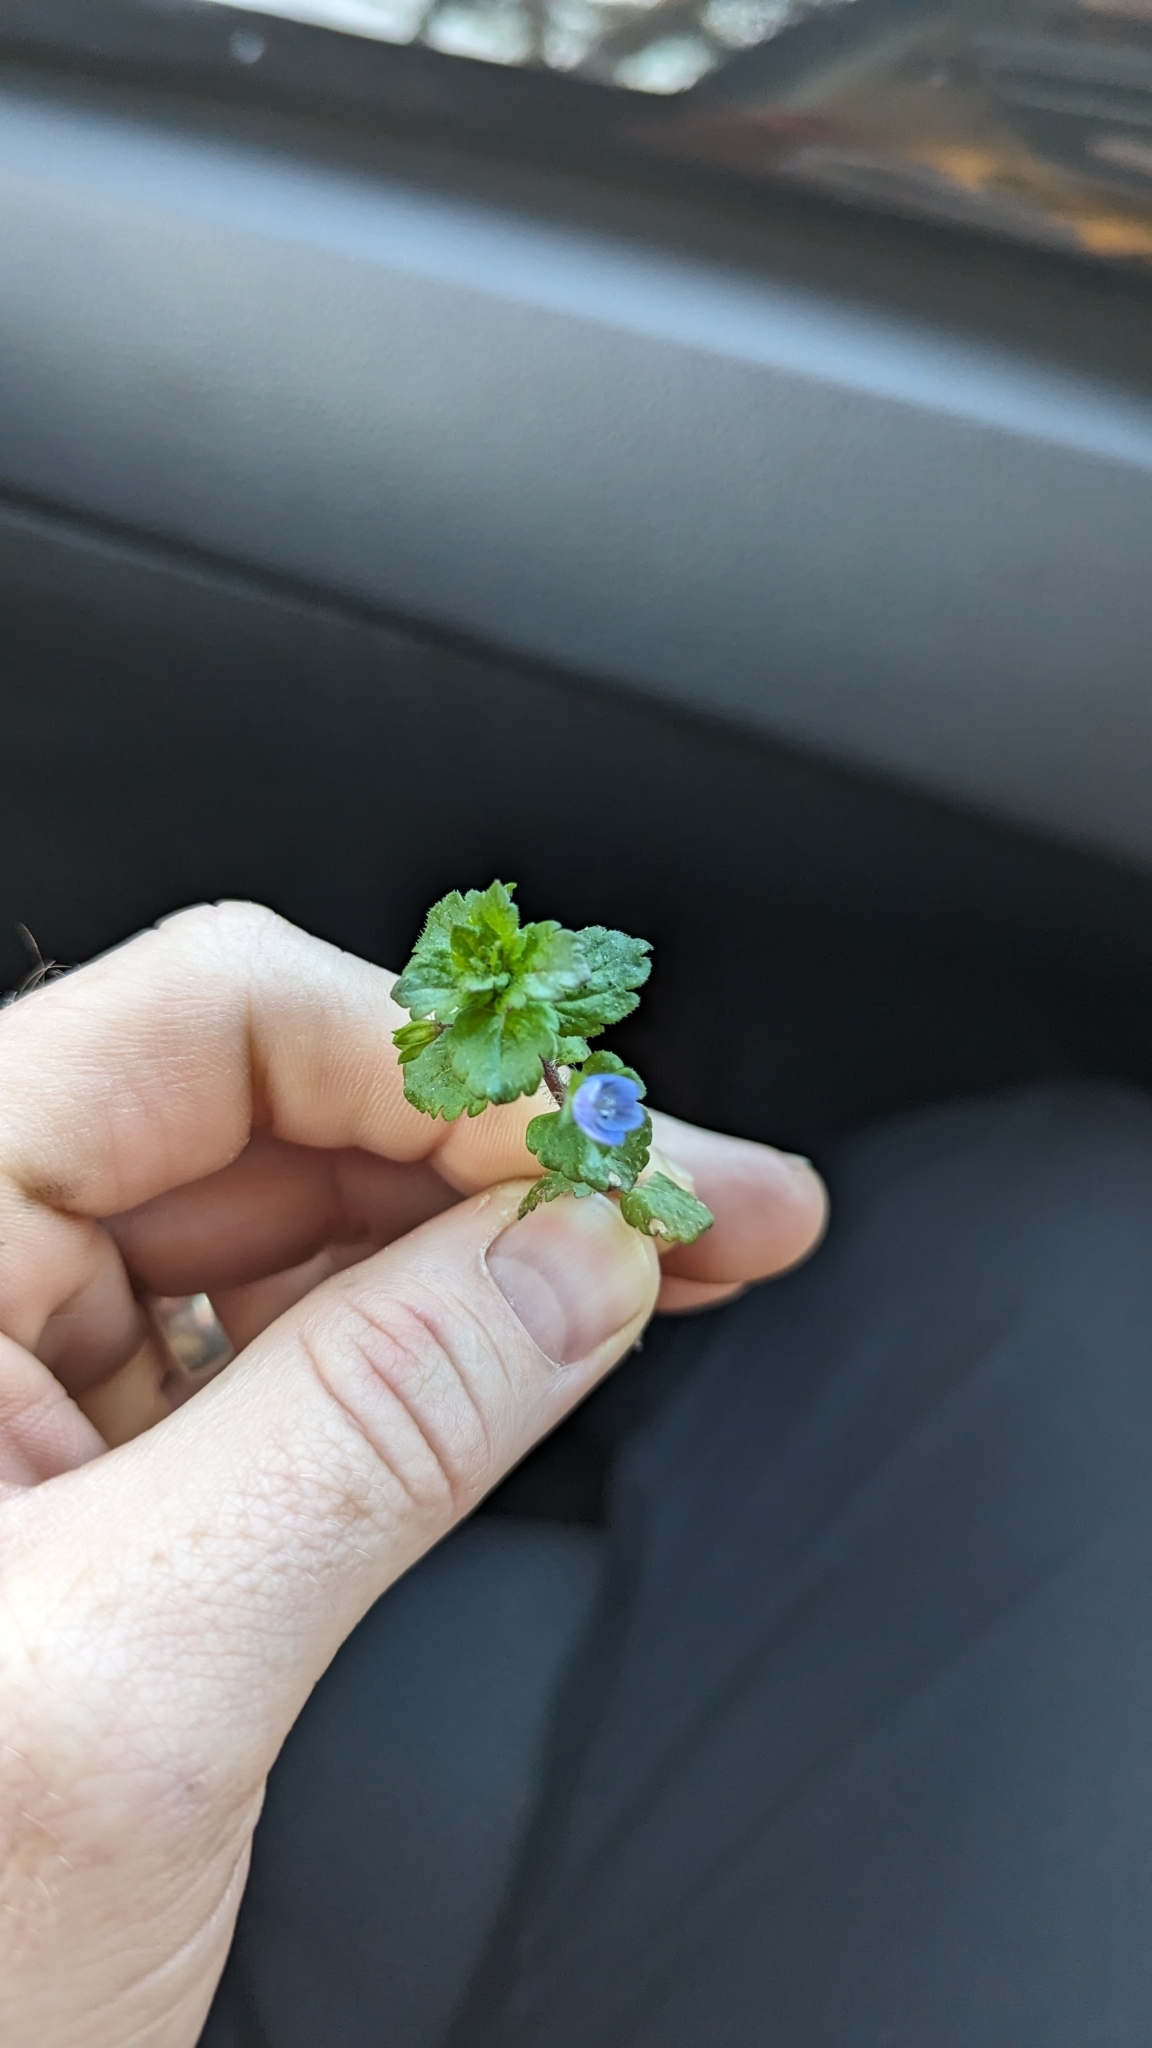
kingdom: Plantae
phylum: Tracheophyta
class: Magnoliopsida
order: Lamiales
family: Plantaginaceae
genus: Veronica
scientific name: Veronica persica
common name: Common field-speedwell
